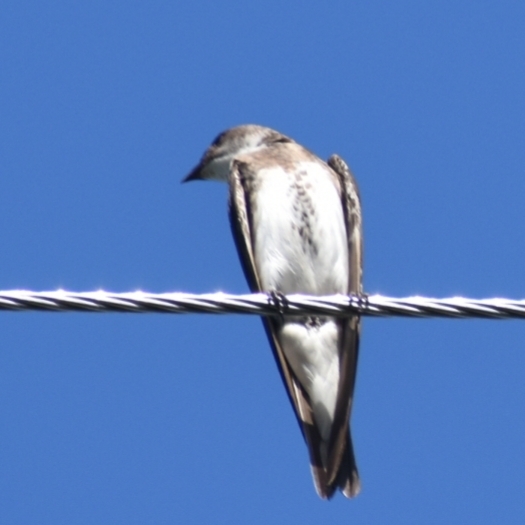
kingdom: Animalia
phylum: Chordata
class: Aves
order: Passeriformes
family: Hirundinidae
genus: Progne
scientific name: Progne tapera
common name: Brown-chested martin
